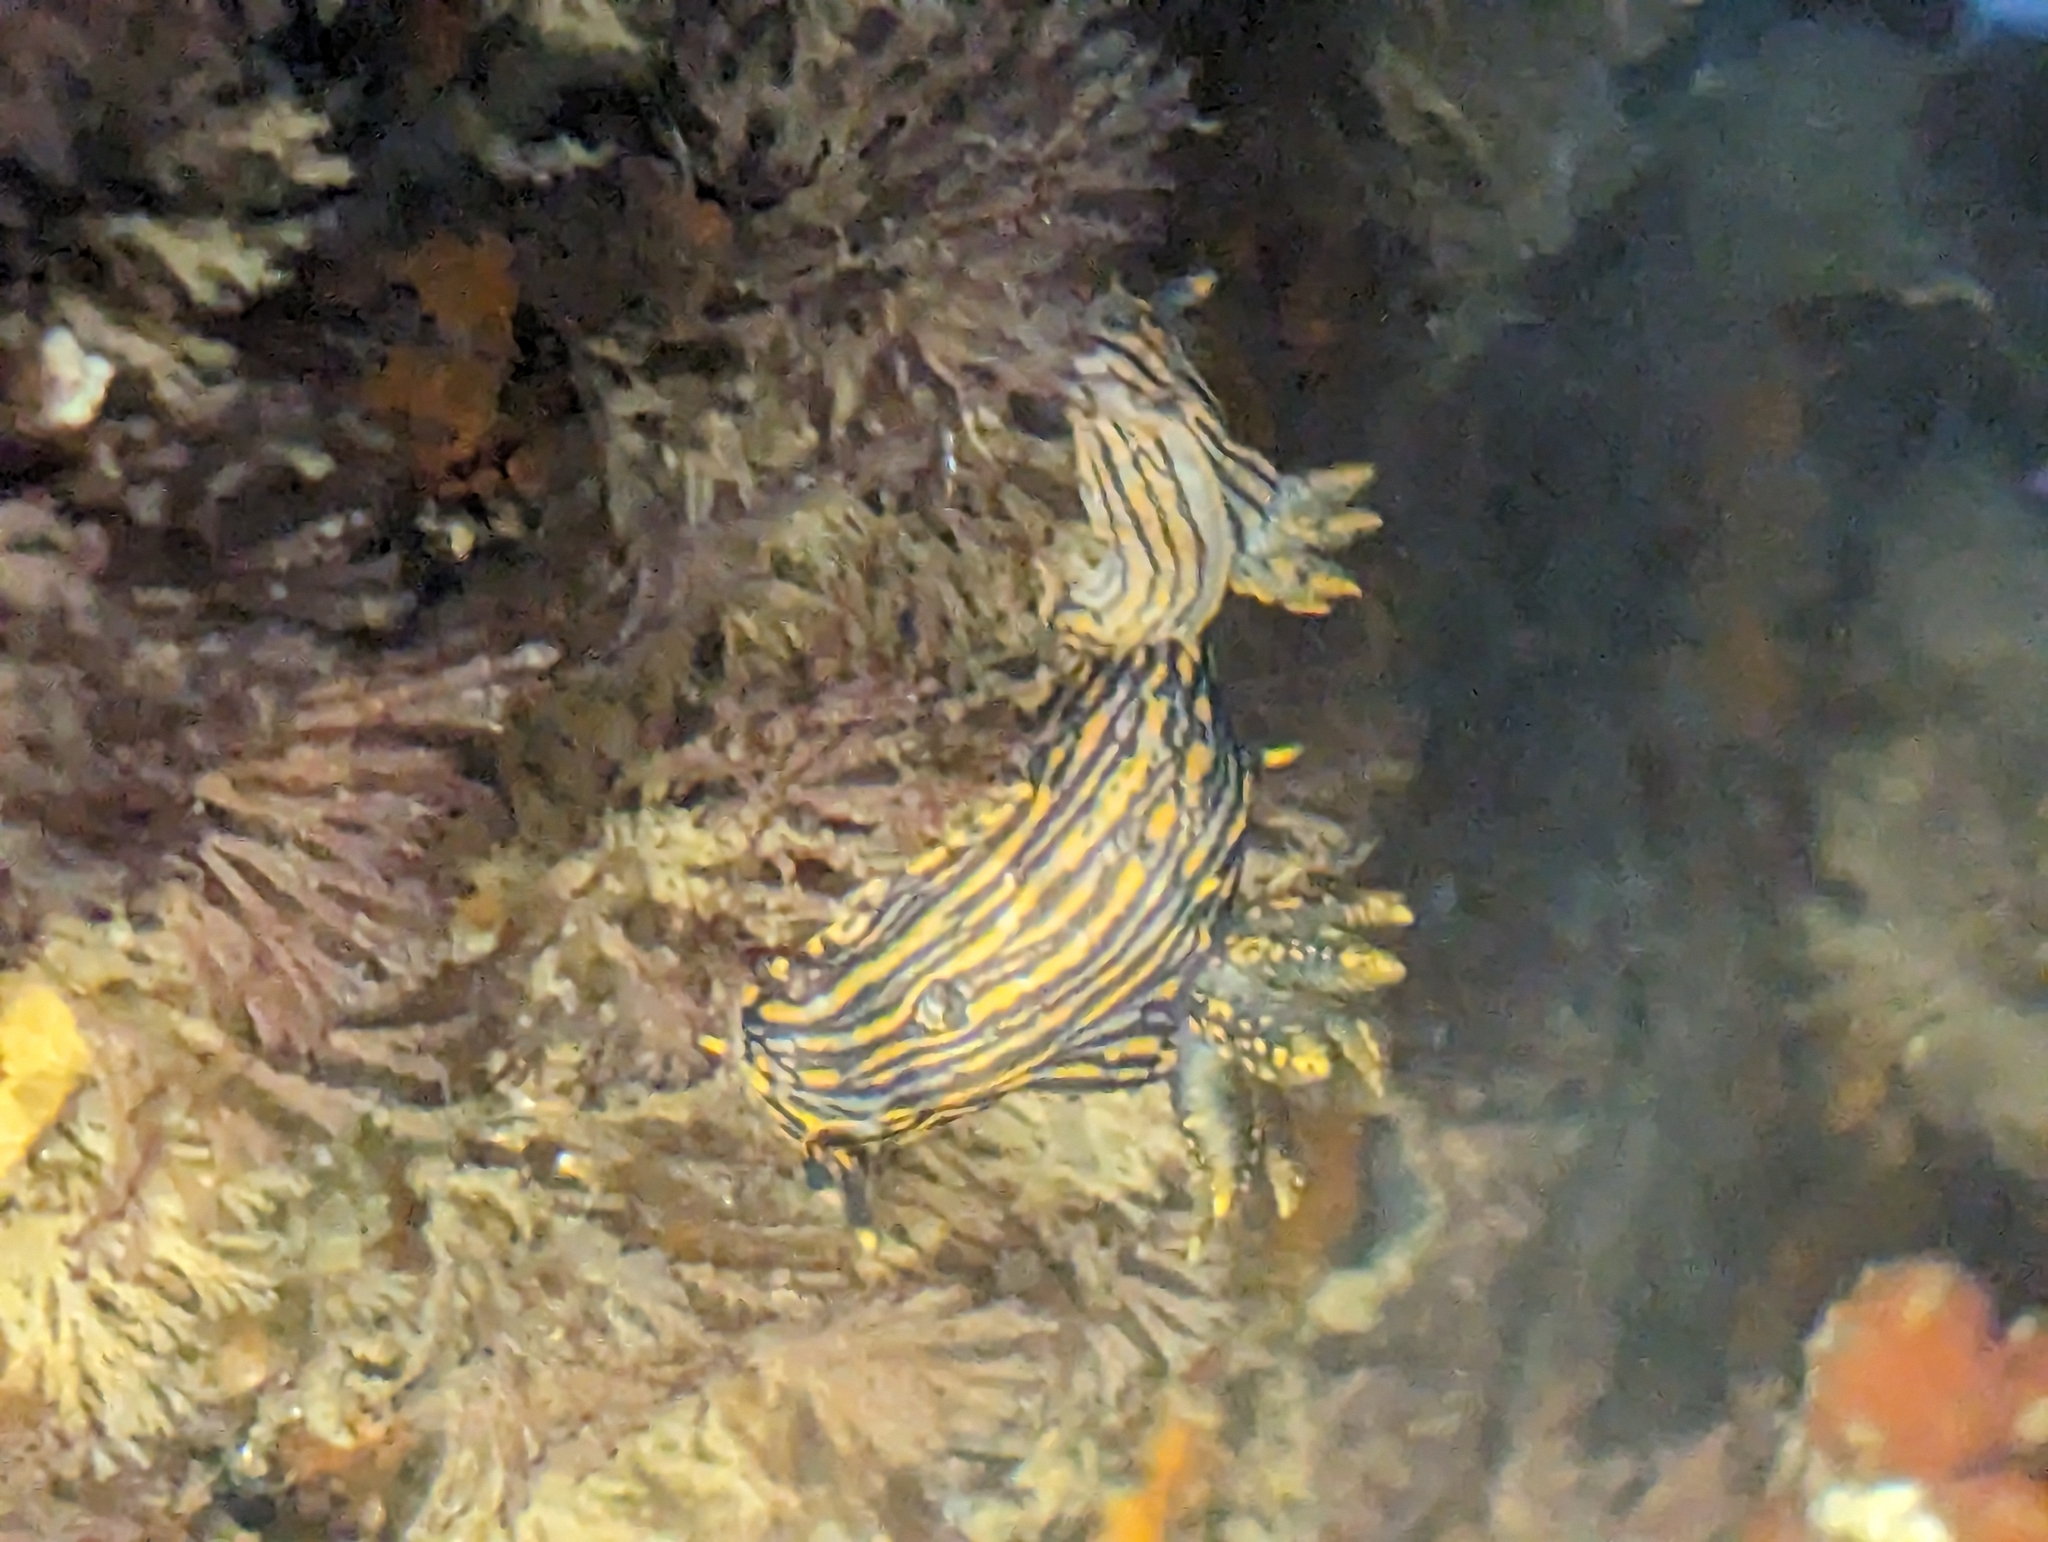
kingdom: Animalia
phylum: Mollusca
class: Gastropoda
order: Nudibranchia
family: Polyceridae
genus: Polycera
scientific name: Polycera atra
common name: Orange-spike polycera
